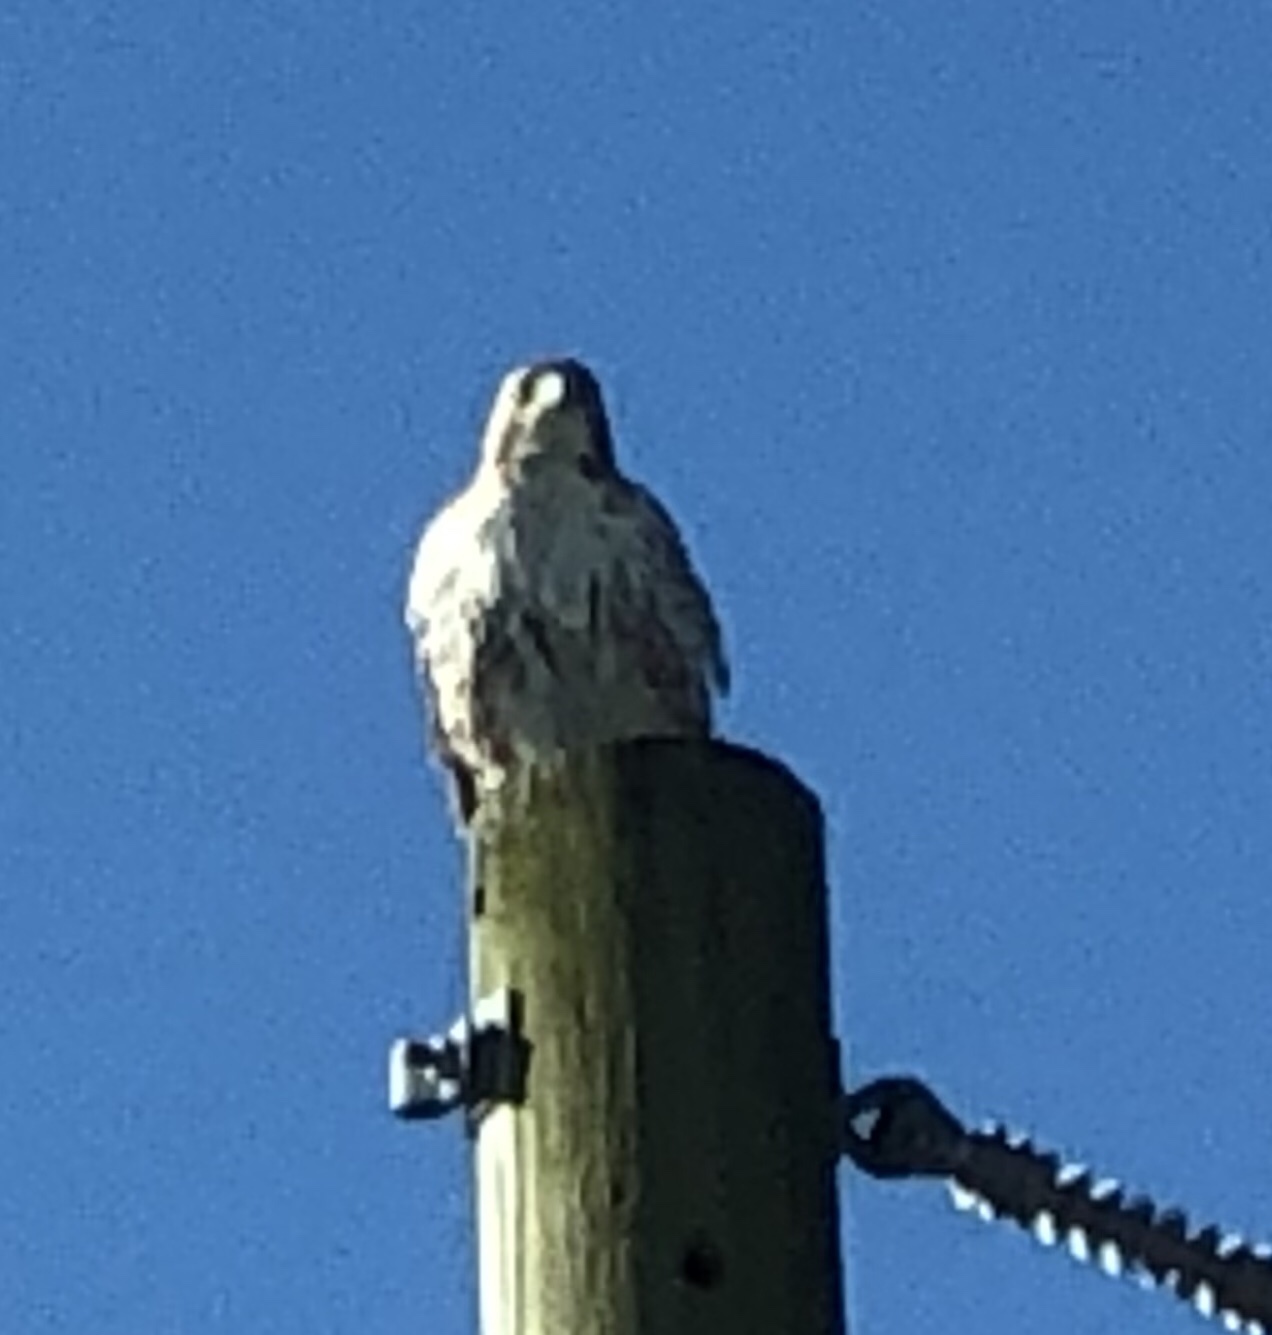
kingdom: Animalia
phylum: Chordata
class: Aves
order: Accipitriformes
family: Accipitridae
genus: Buteo
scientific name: Buteo jamaicensis
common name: Red-tailed hawk
